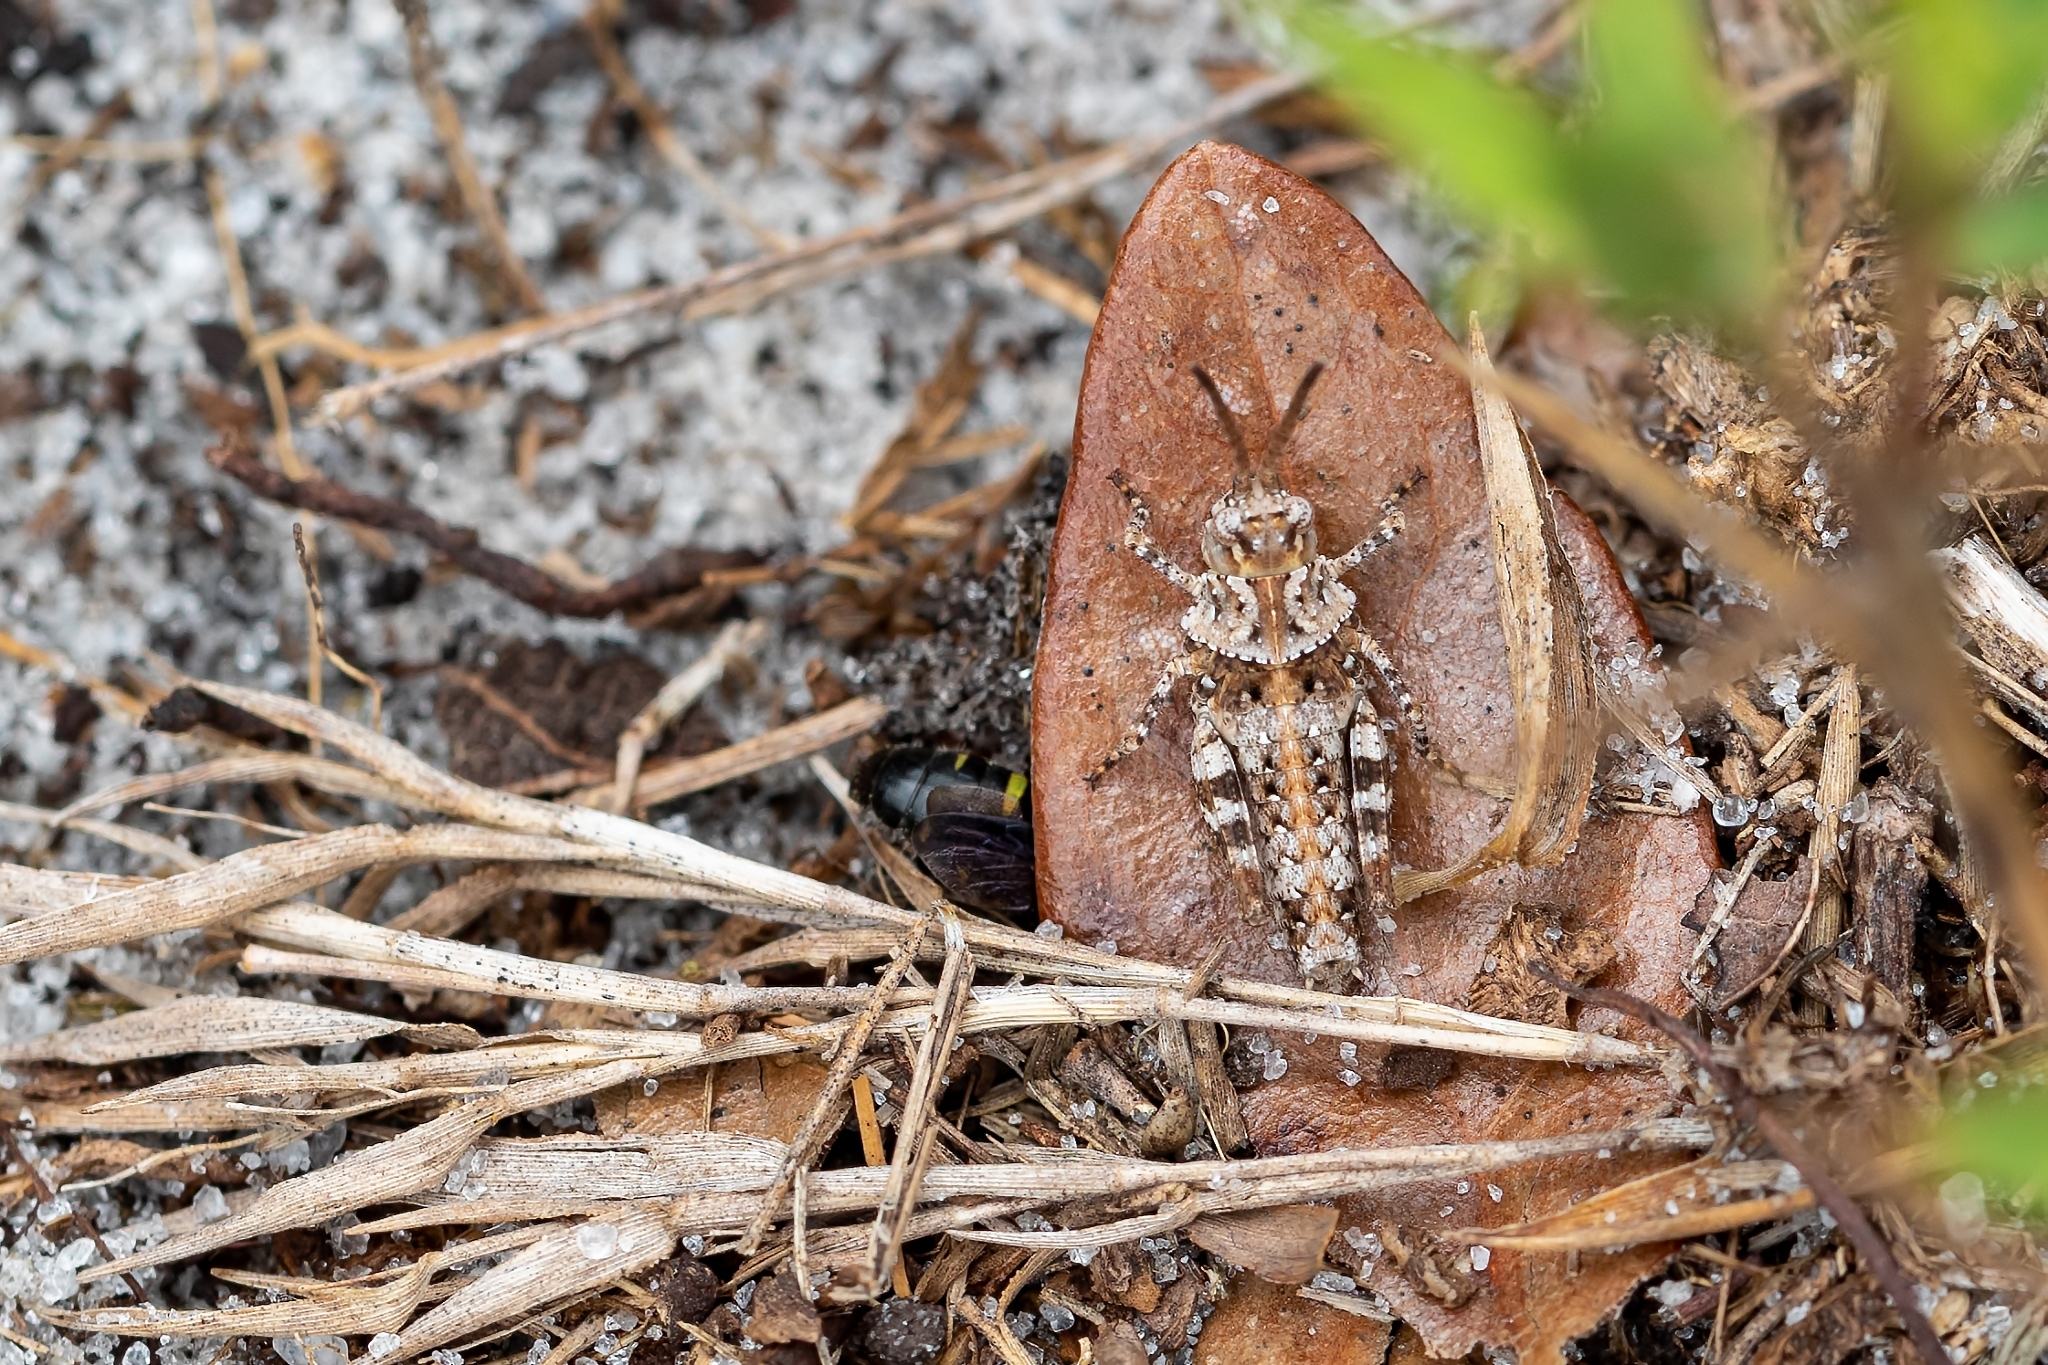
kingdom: Animalia
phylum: Arthropoda
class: Insecta
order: Orthoptera
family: Acrididae
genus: Psinidia
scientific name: Psinidia fenestralis
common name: Long-horned locust
